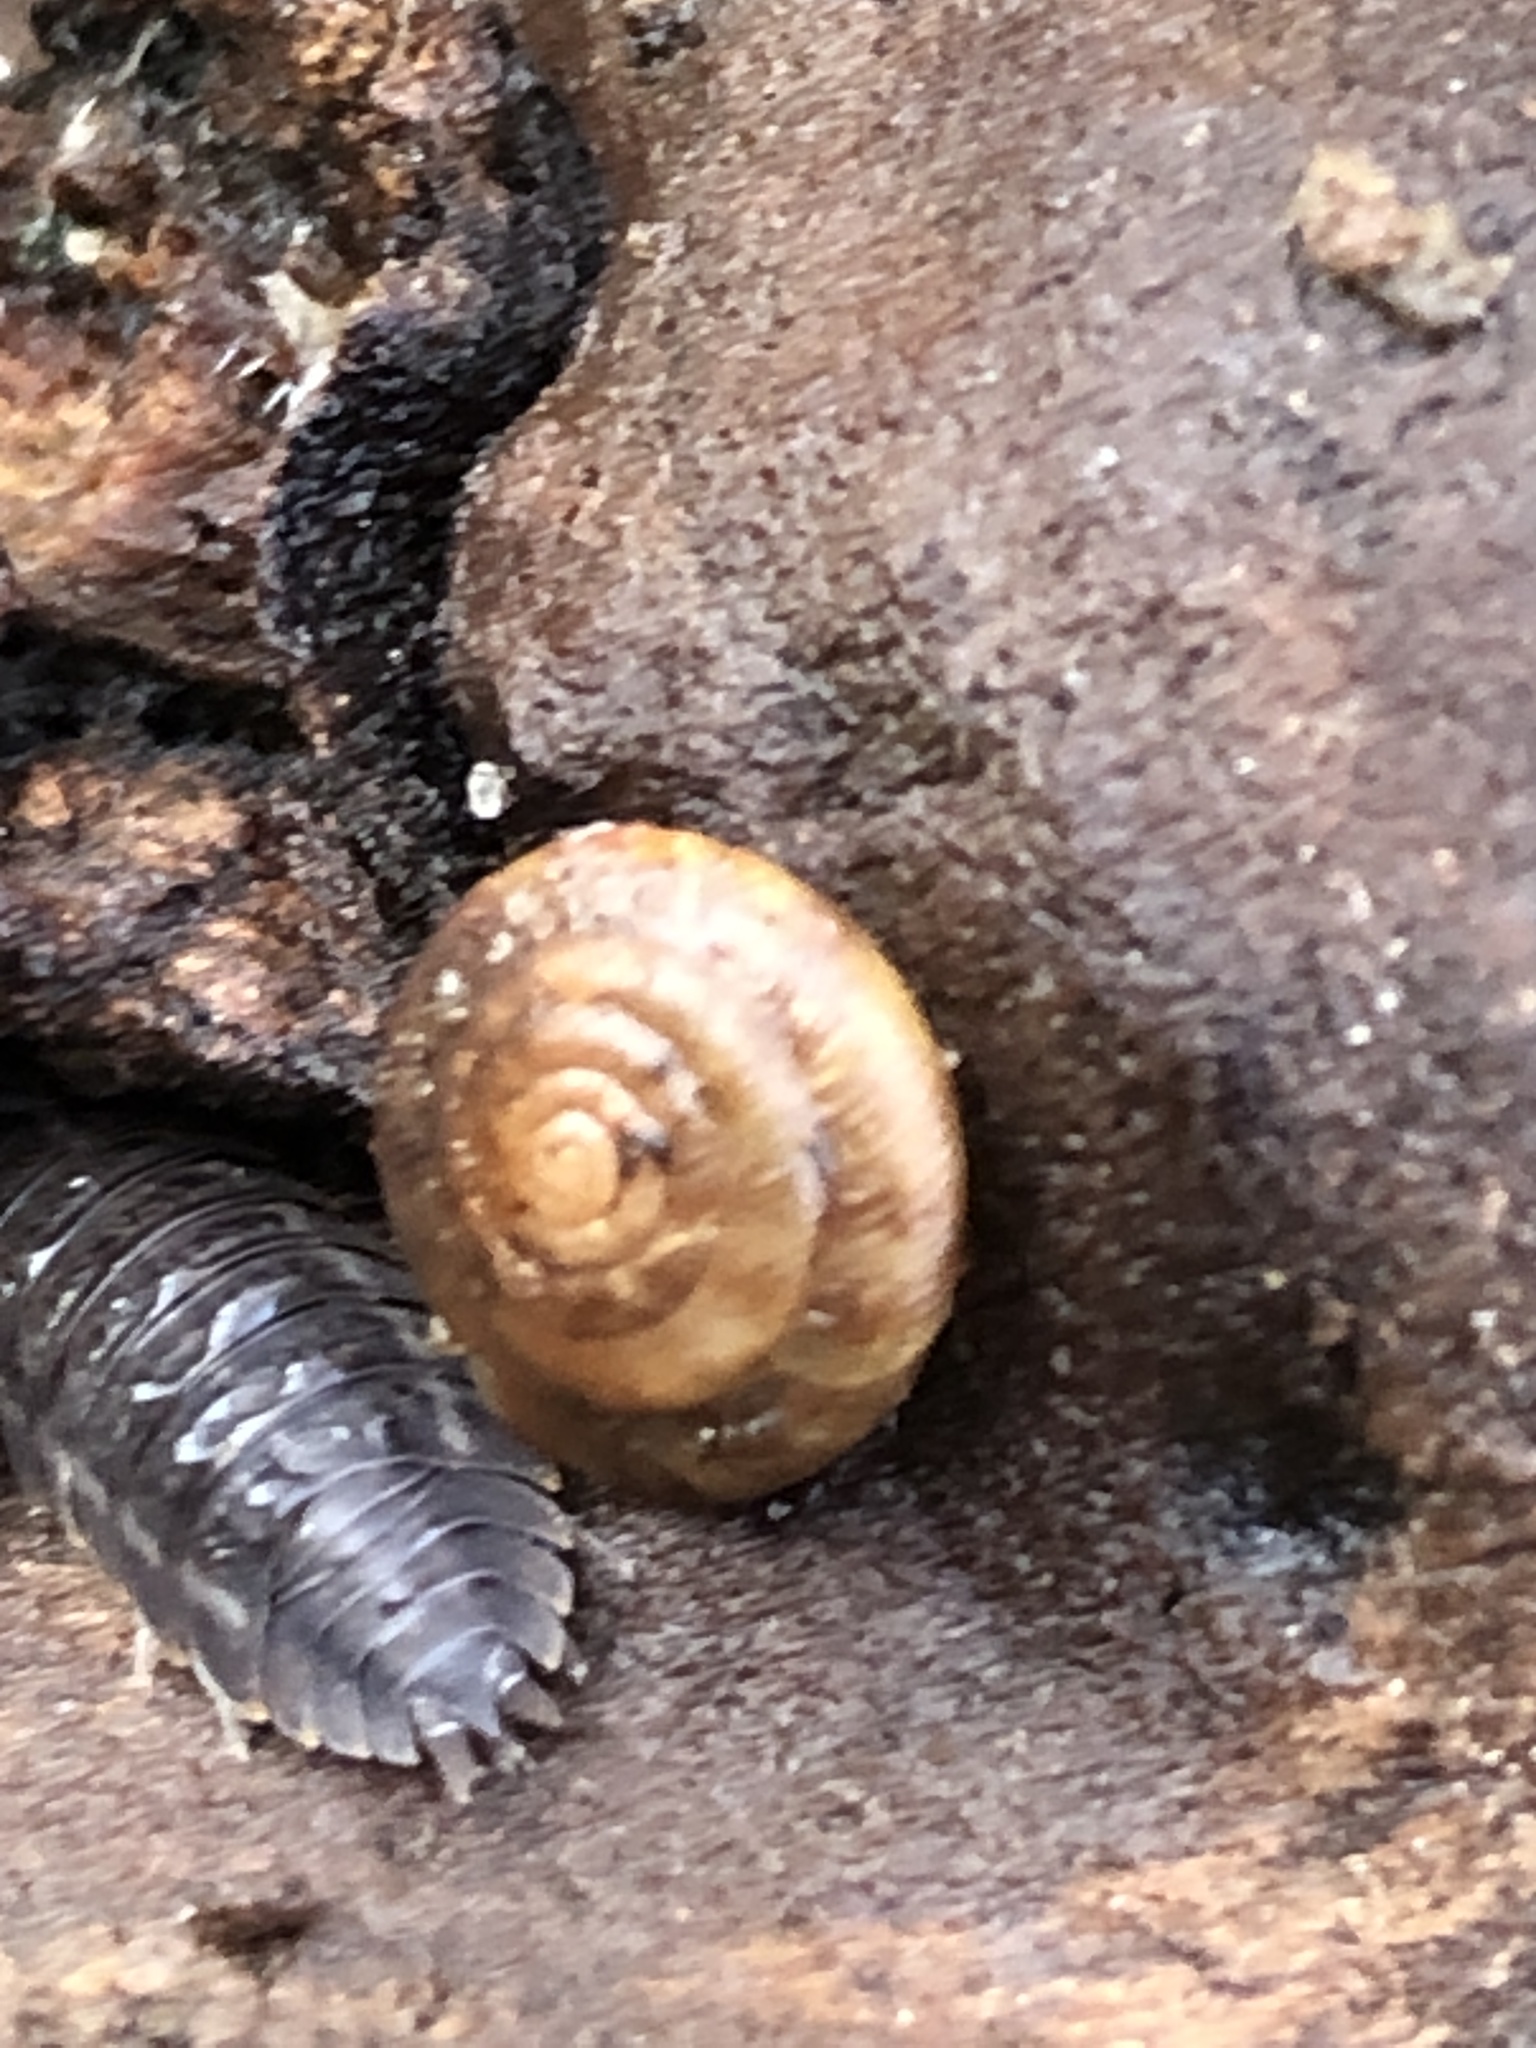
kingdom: Animalia
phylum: Mollusca
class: Gastropoda
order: Stylommatophora
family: Discidae
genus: Discus
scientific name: Discus rotundatus
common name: Rounded snail
